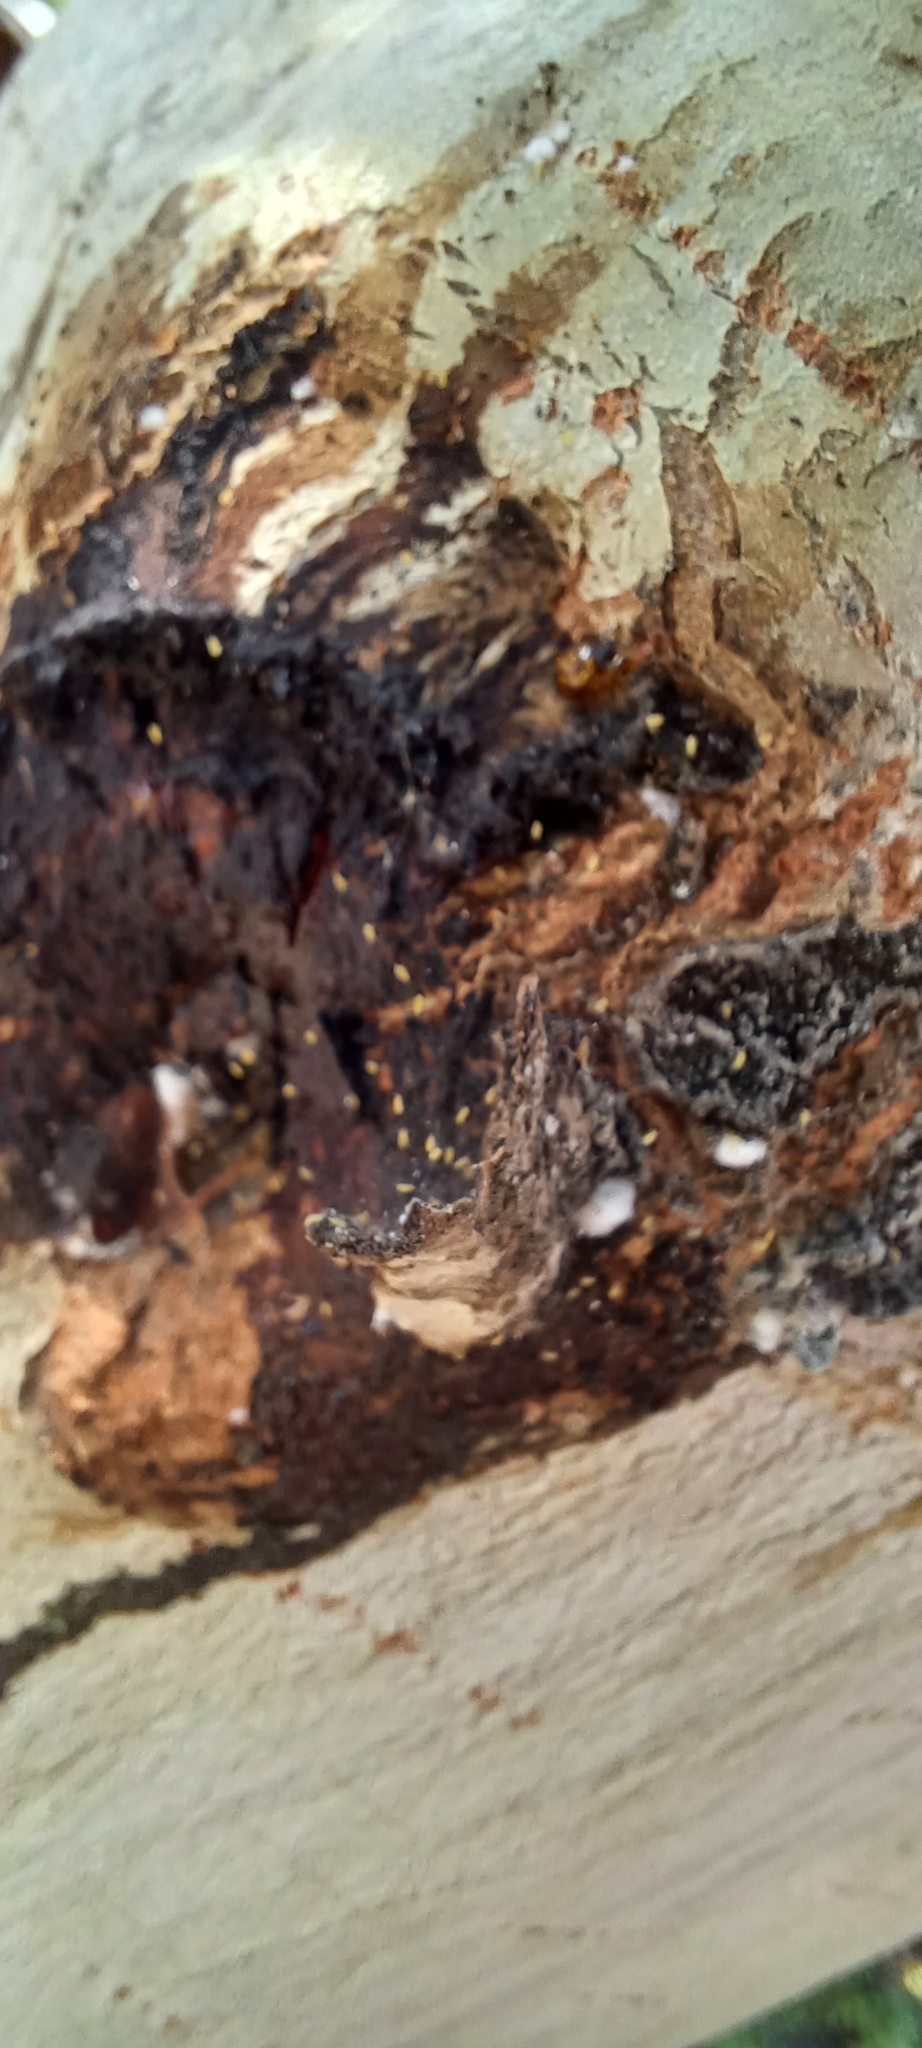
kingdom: Animalia
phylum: Arthropoda
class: Insecta
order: Hemiptera
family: Aphididae
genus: Eriosoma
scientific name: Eriosoma lanigerum
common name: Woolly apple aphid
